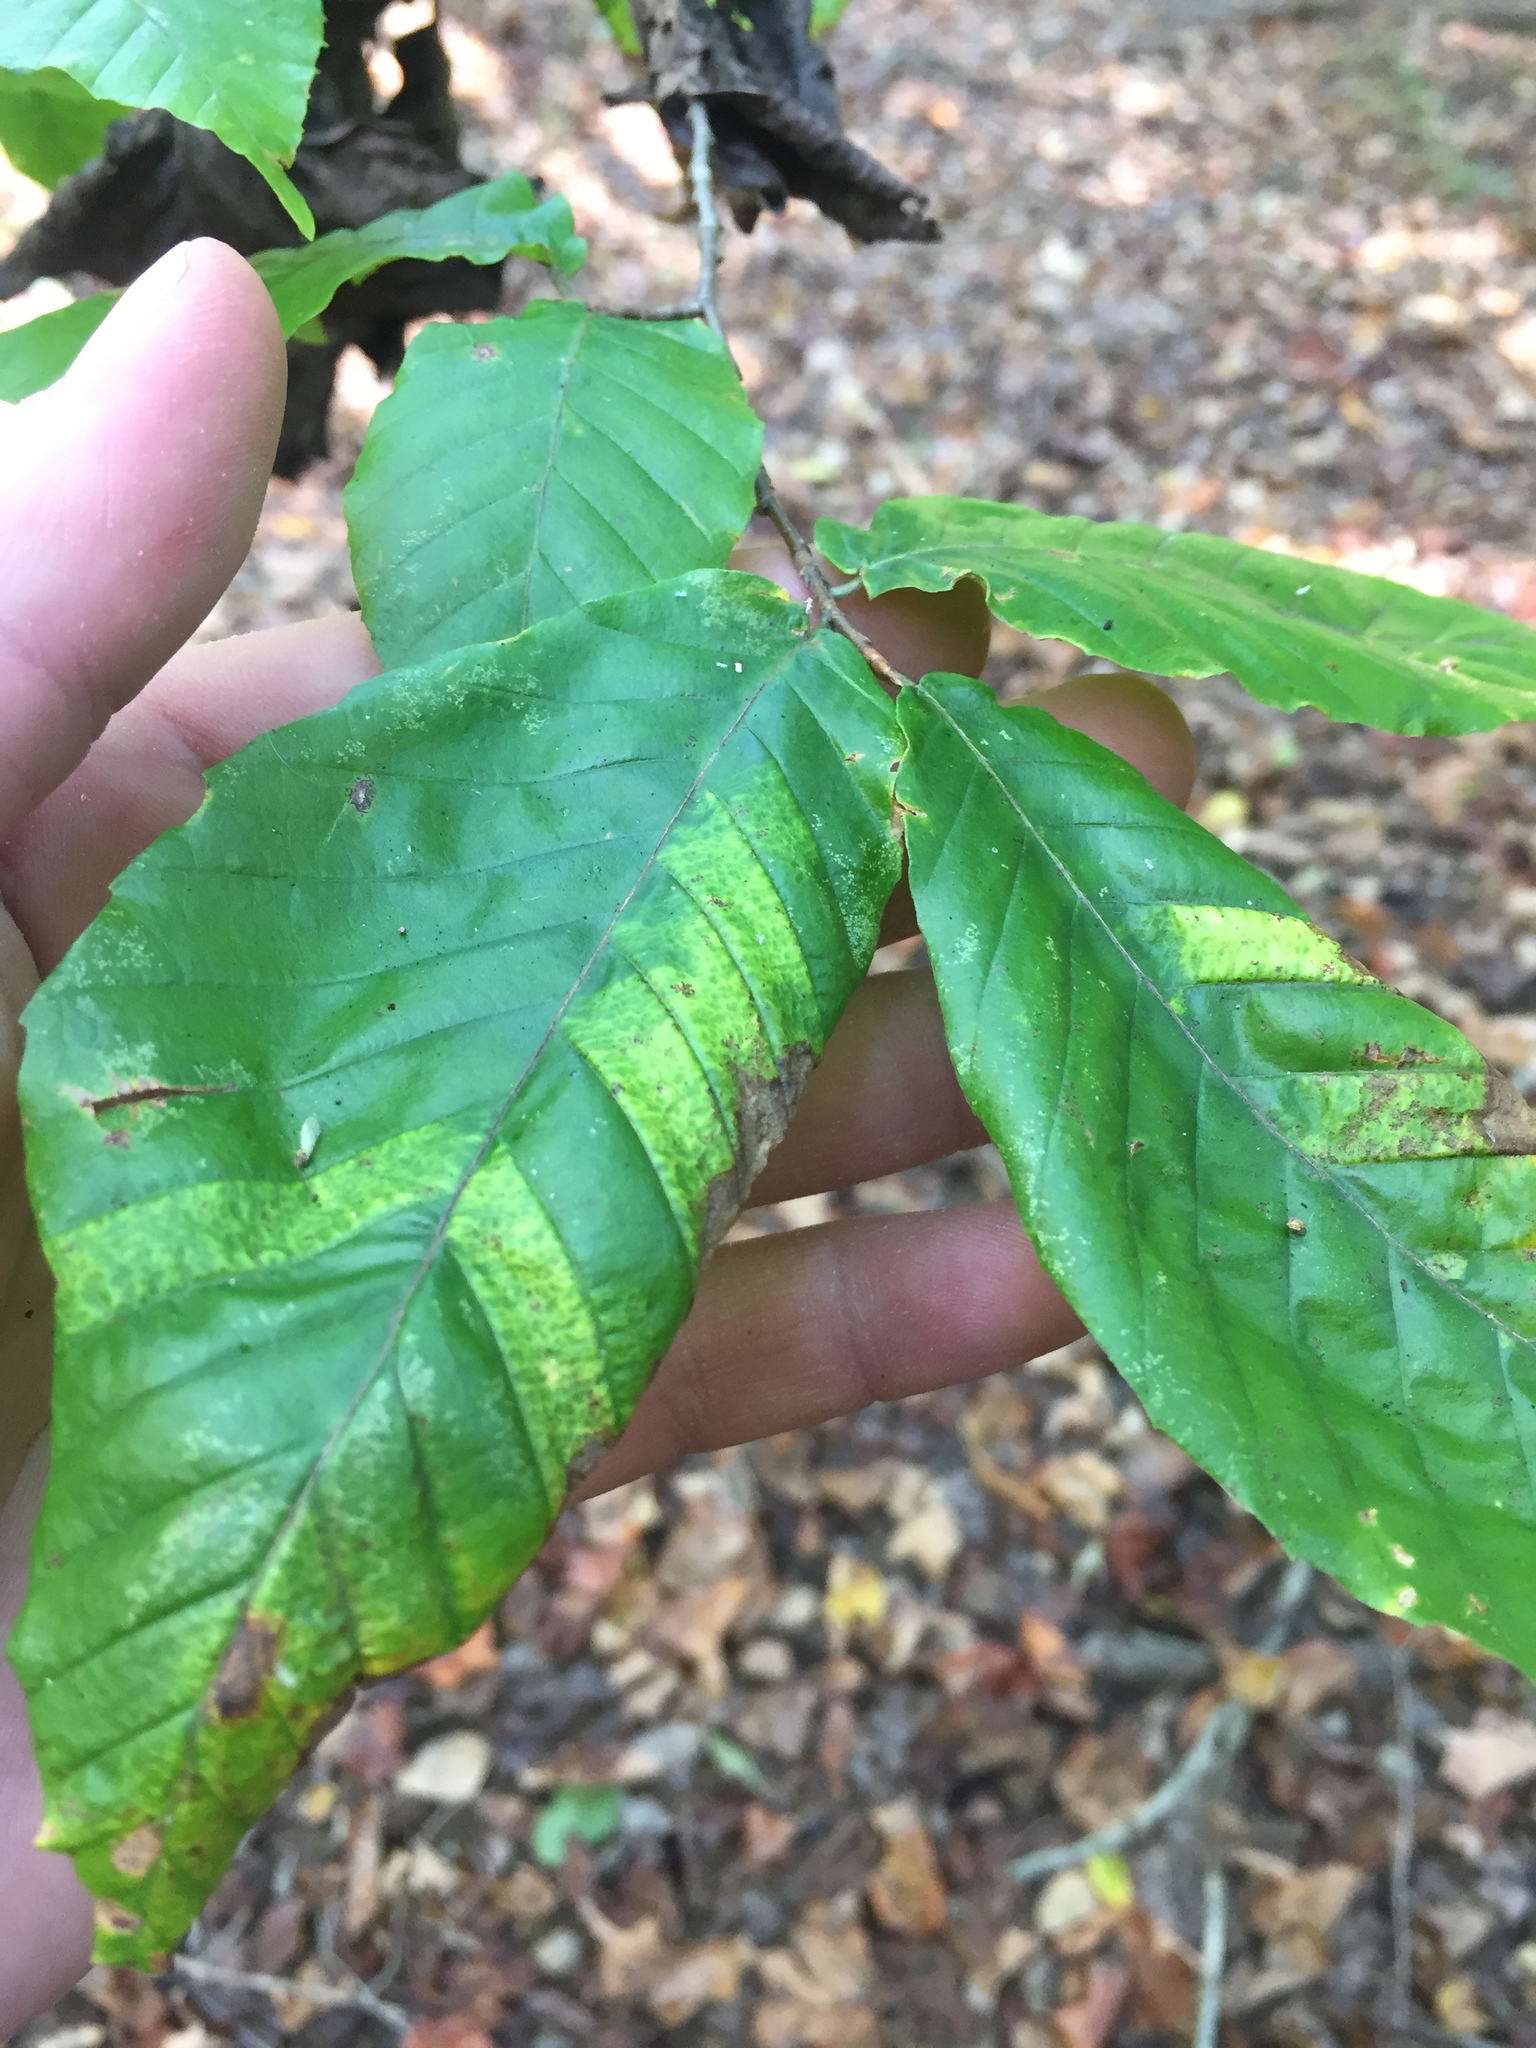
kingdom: Plantae
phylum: Tracheophyta
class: Magnoliopsida
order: Fagales
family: Fagaceae
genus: Fagus
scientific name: Fagus grandifolia
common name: American beech
